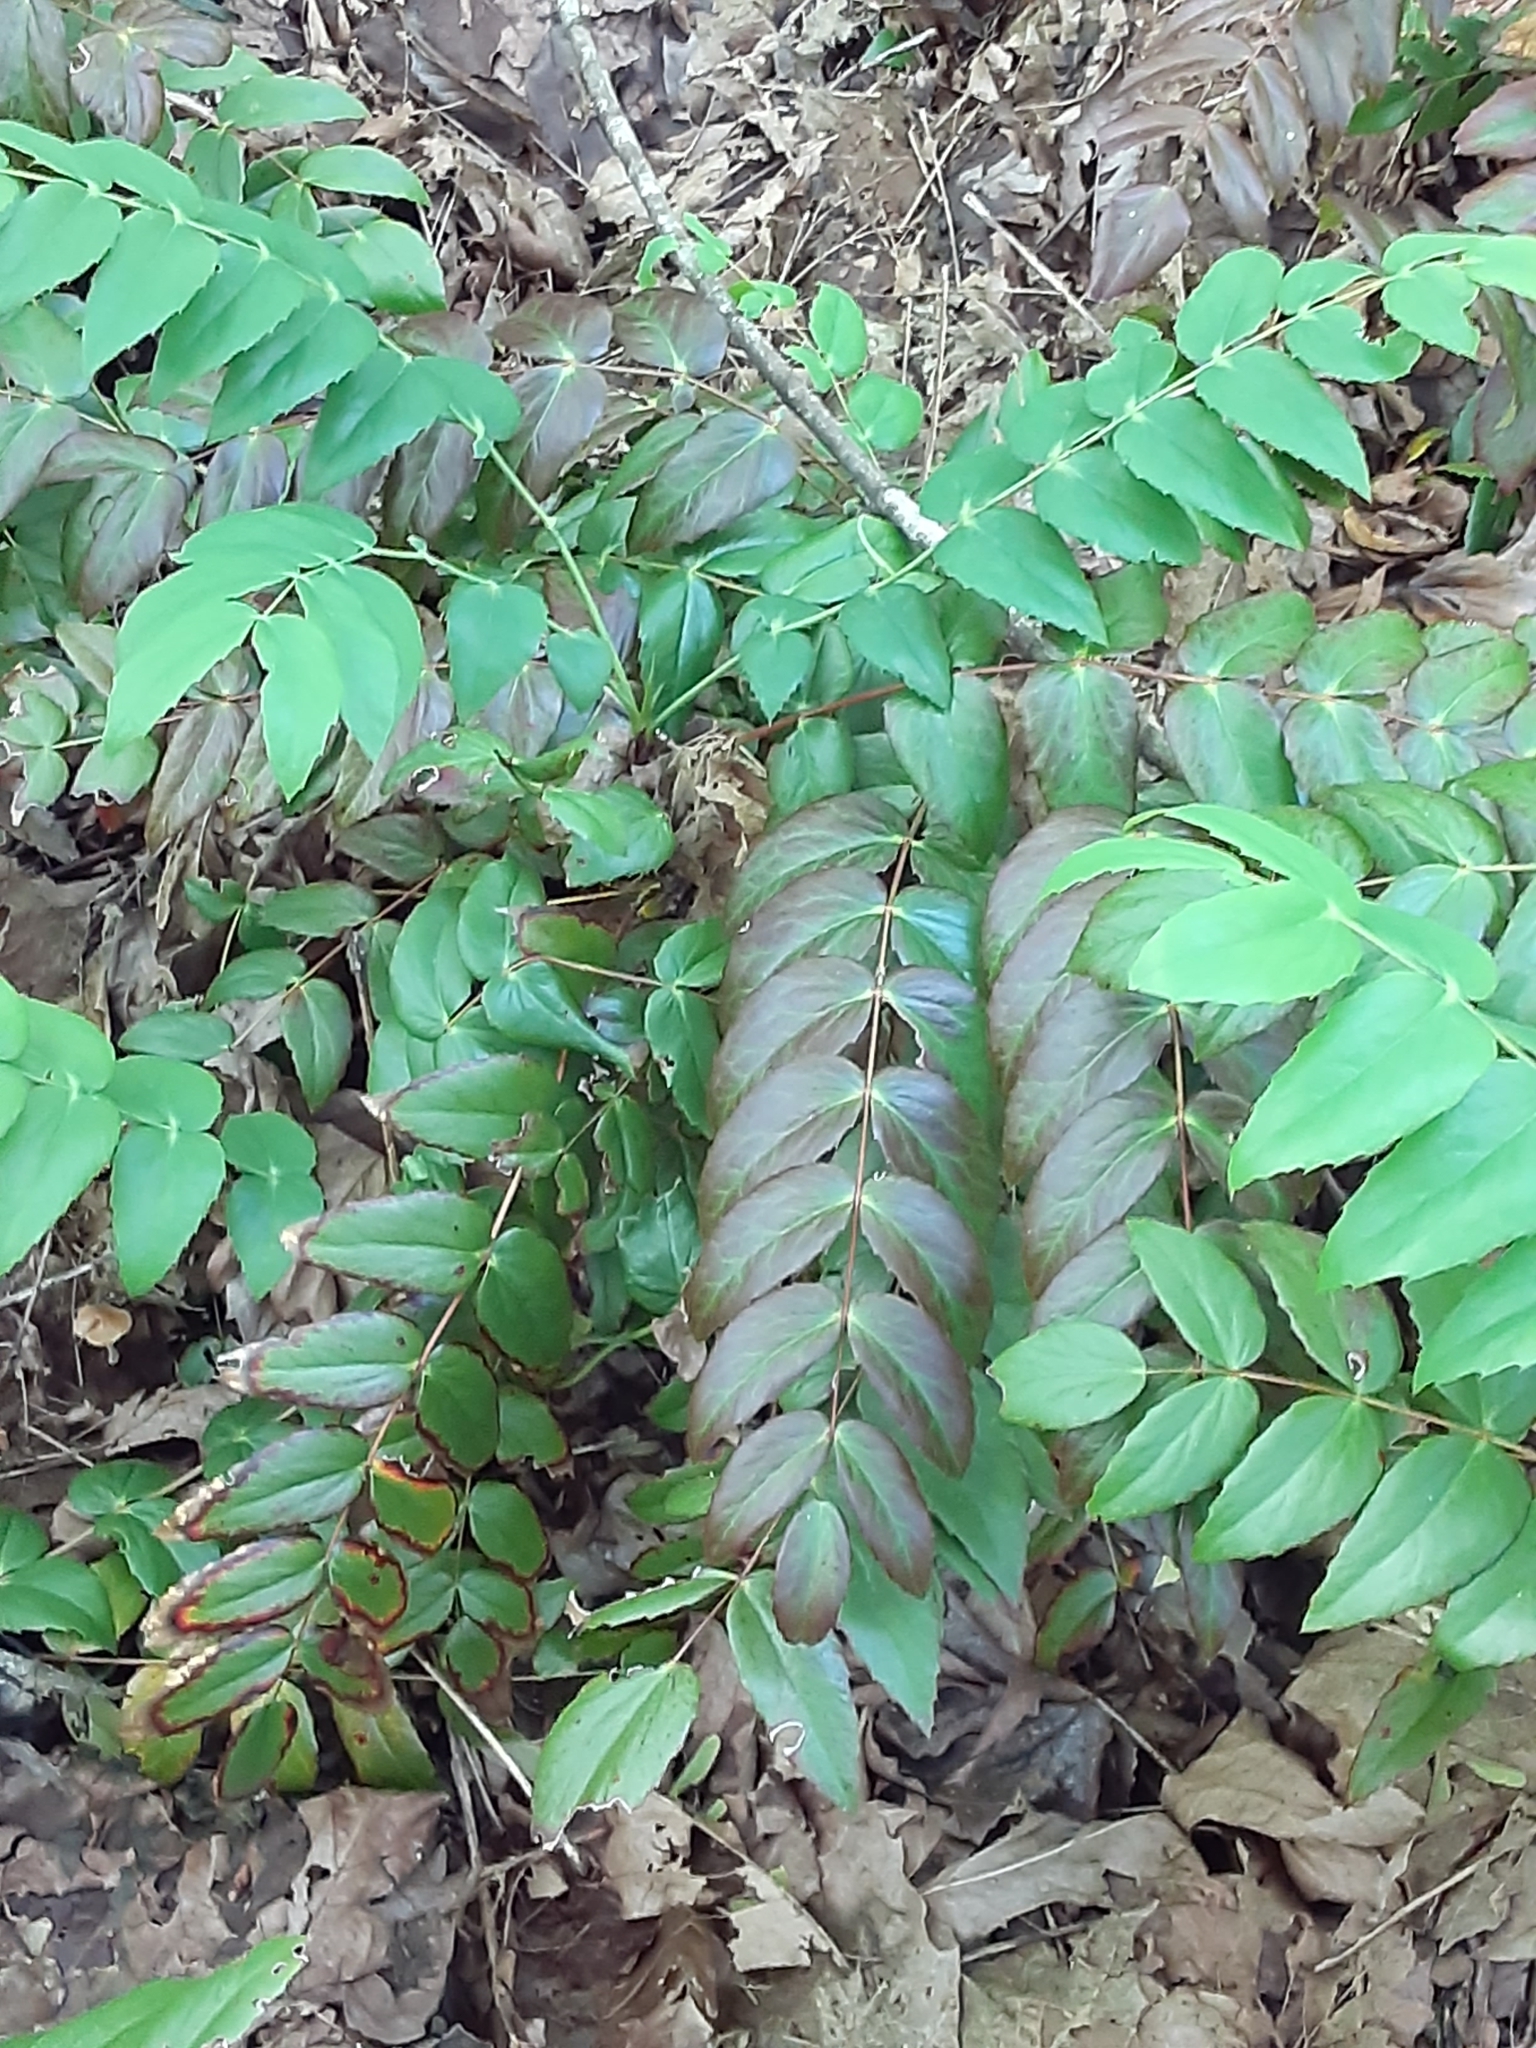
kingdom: Plantae
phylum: Tracheophyta
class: Magnoliopsida
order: Ranunculales
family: Berberidaceae
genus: Mahonia
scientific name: Mahonia nervosa
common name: Cascade oregon-grape
